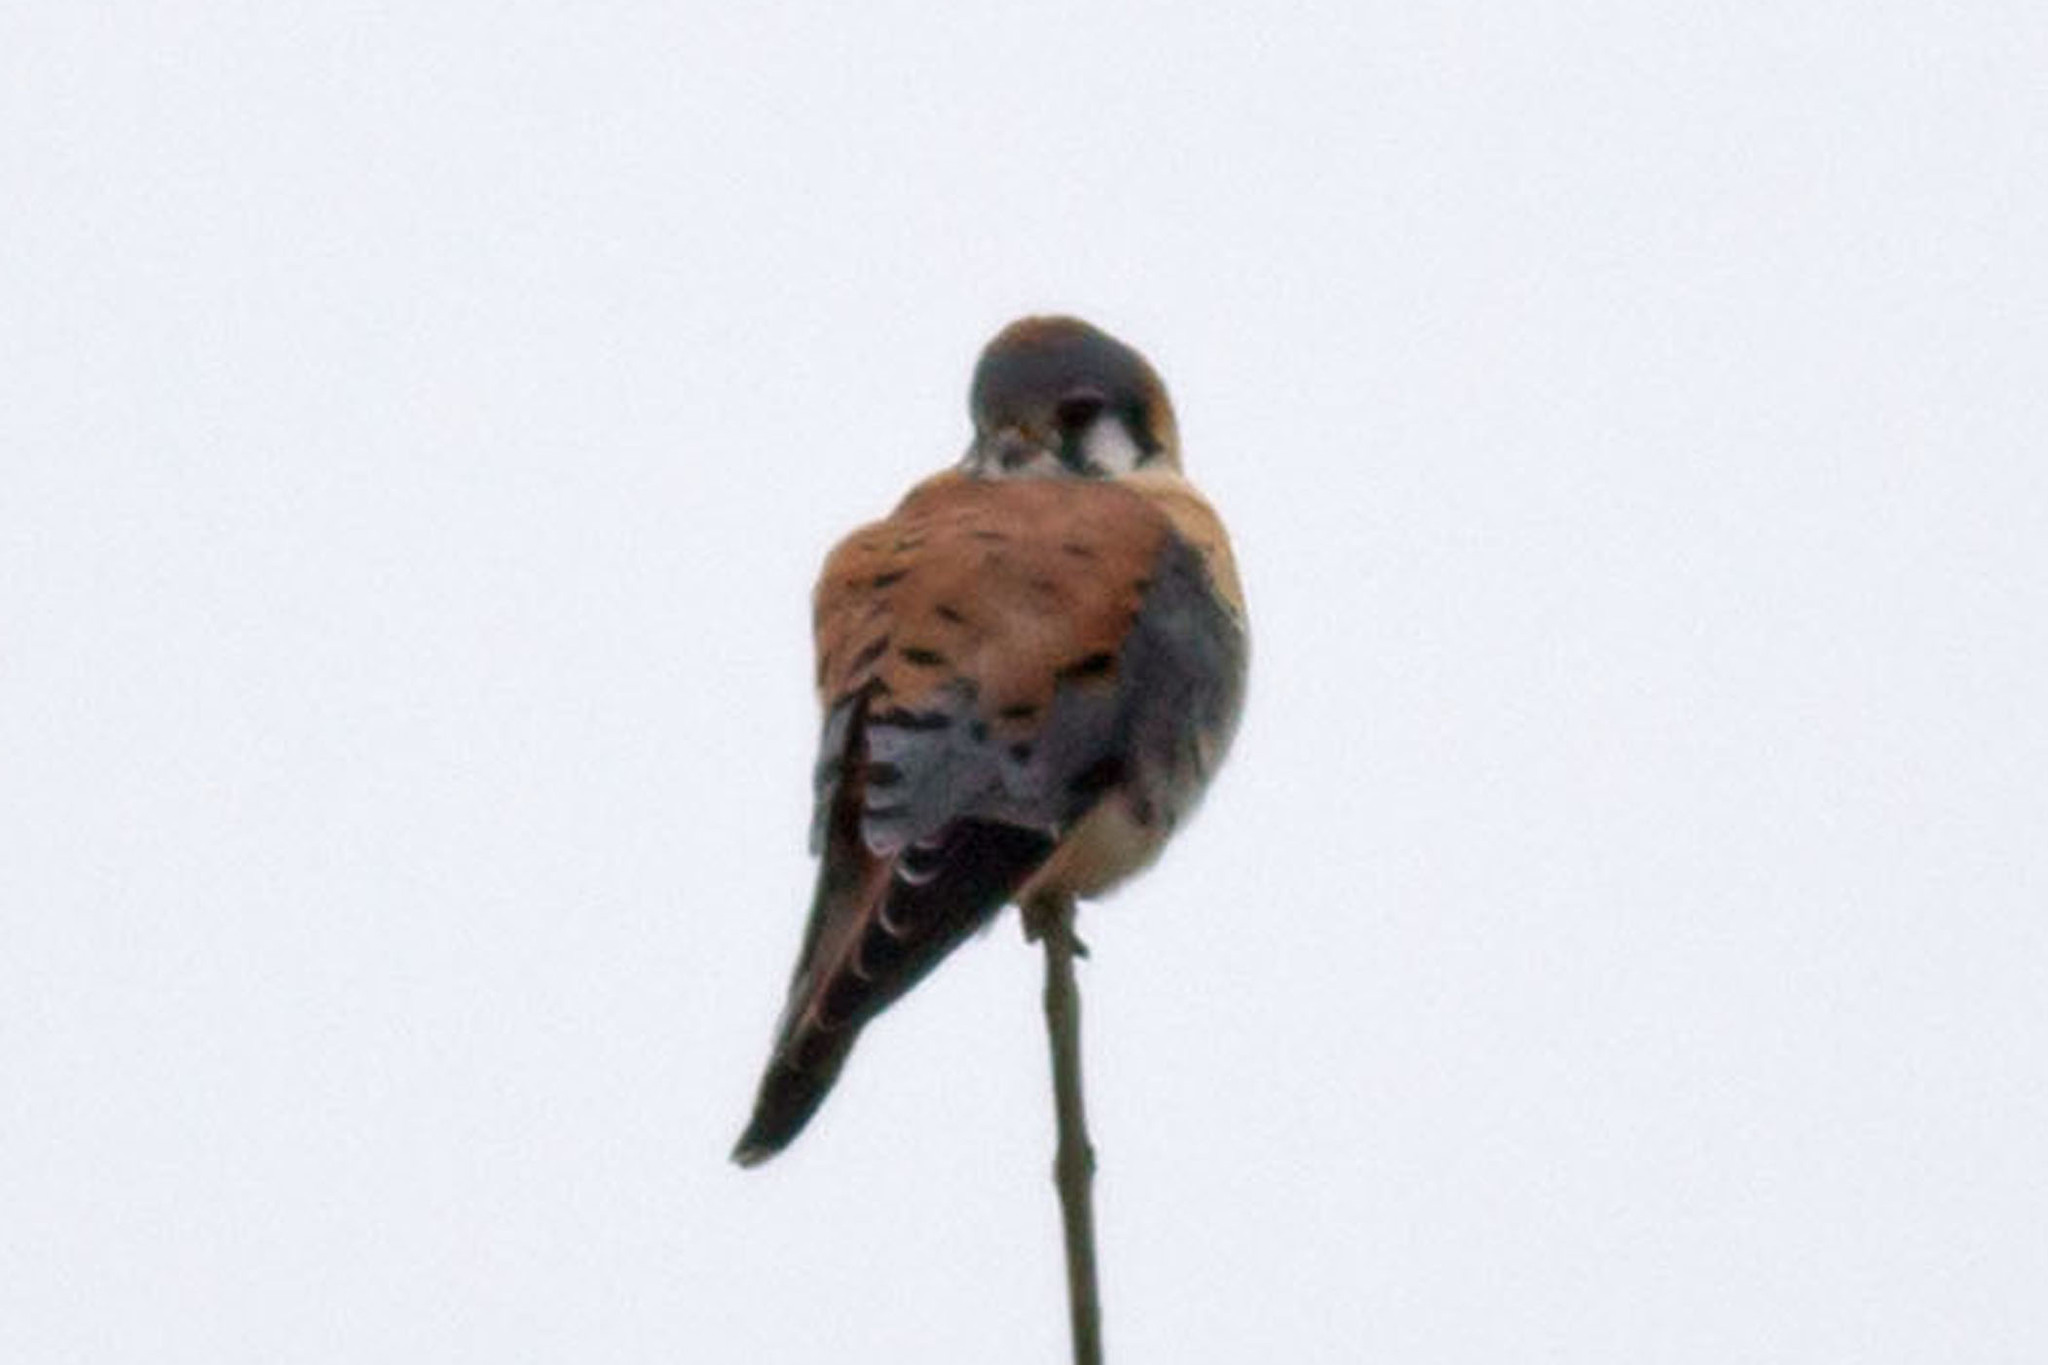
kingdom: Animalia
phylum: Chordata
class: Aves
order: Falconiformes
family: Falconidae
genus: Falco
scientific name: Falco sparverius
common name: American kestrel
